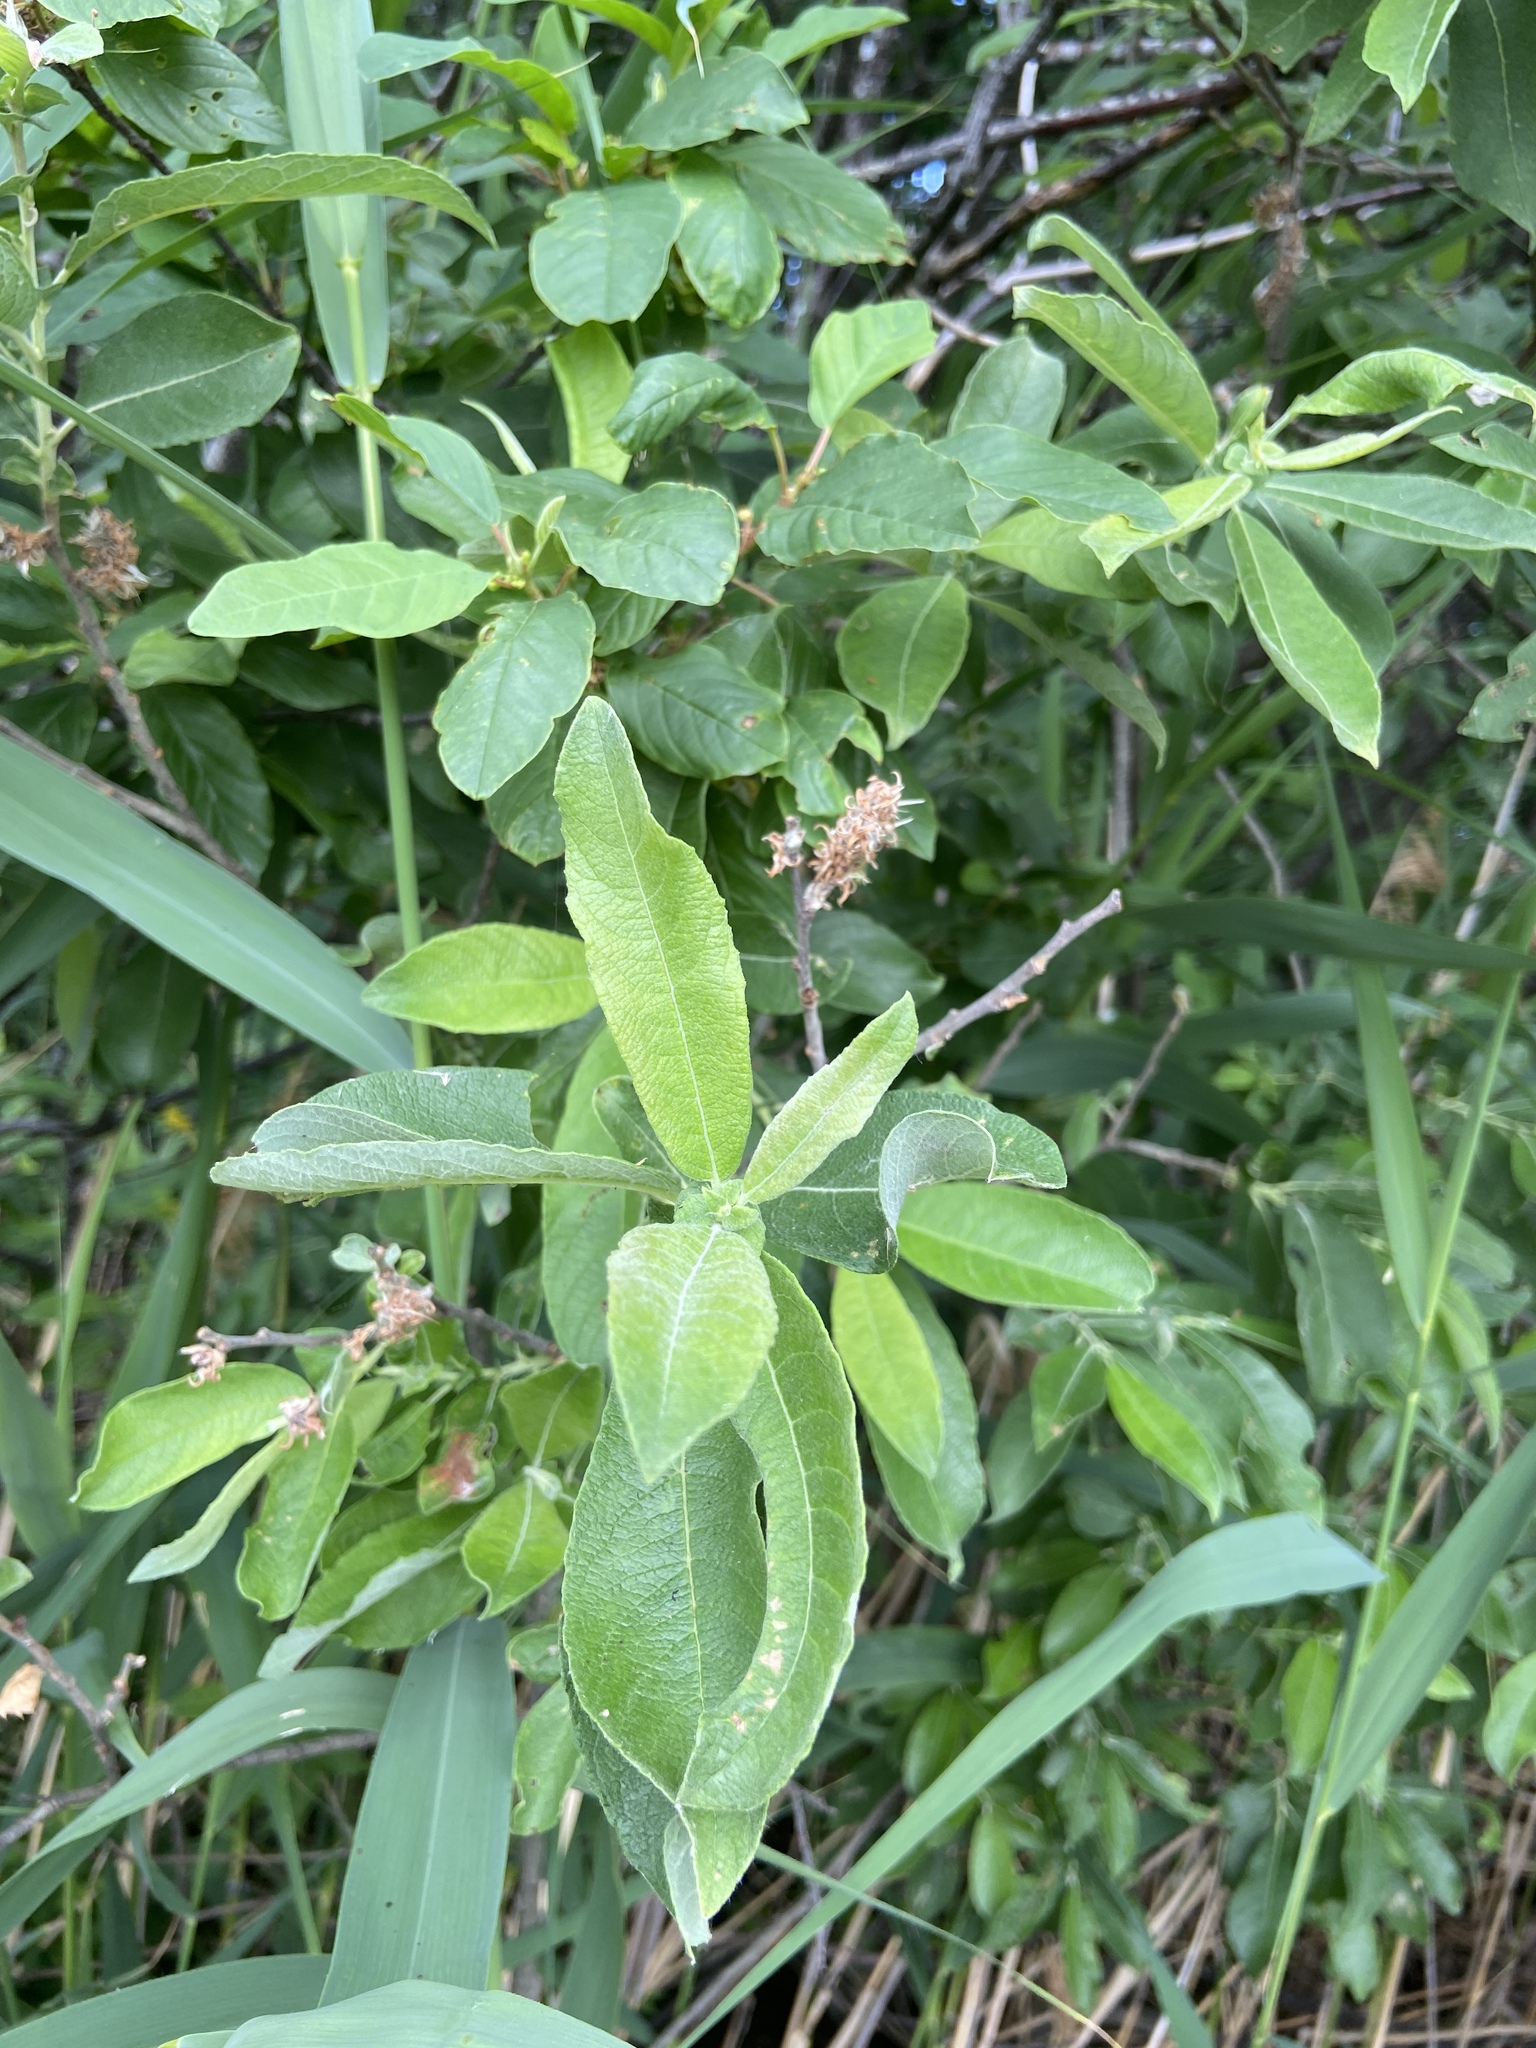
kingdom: Plantae
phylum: Tracheophyta
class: Magnoliopsida
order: Malpighiales
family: Salicaceae
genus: Salix
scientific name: Salix cinerea
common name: Common sallow
